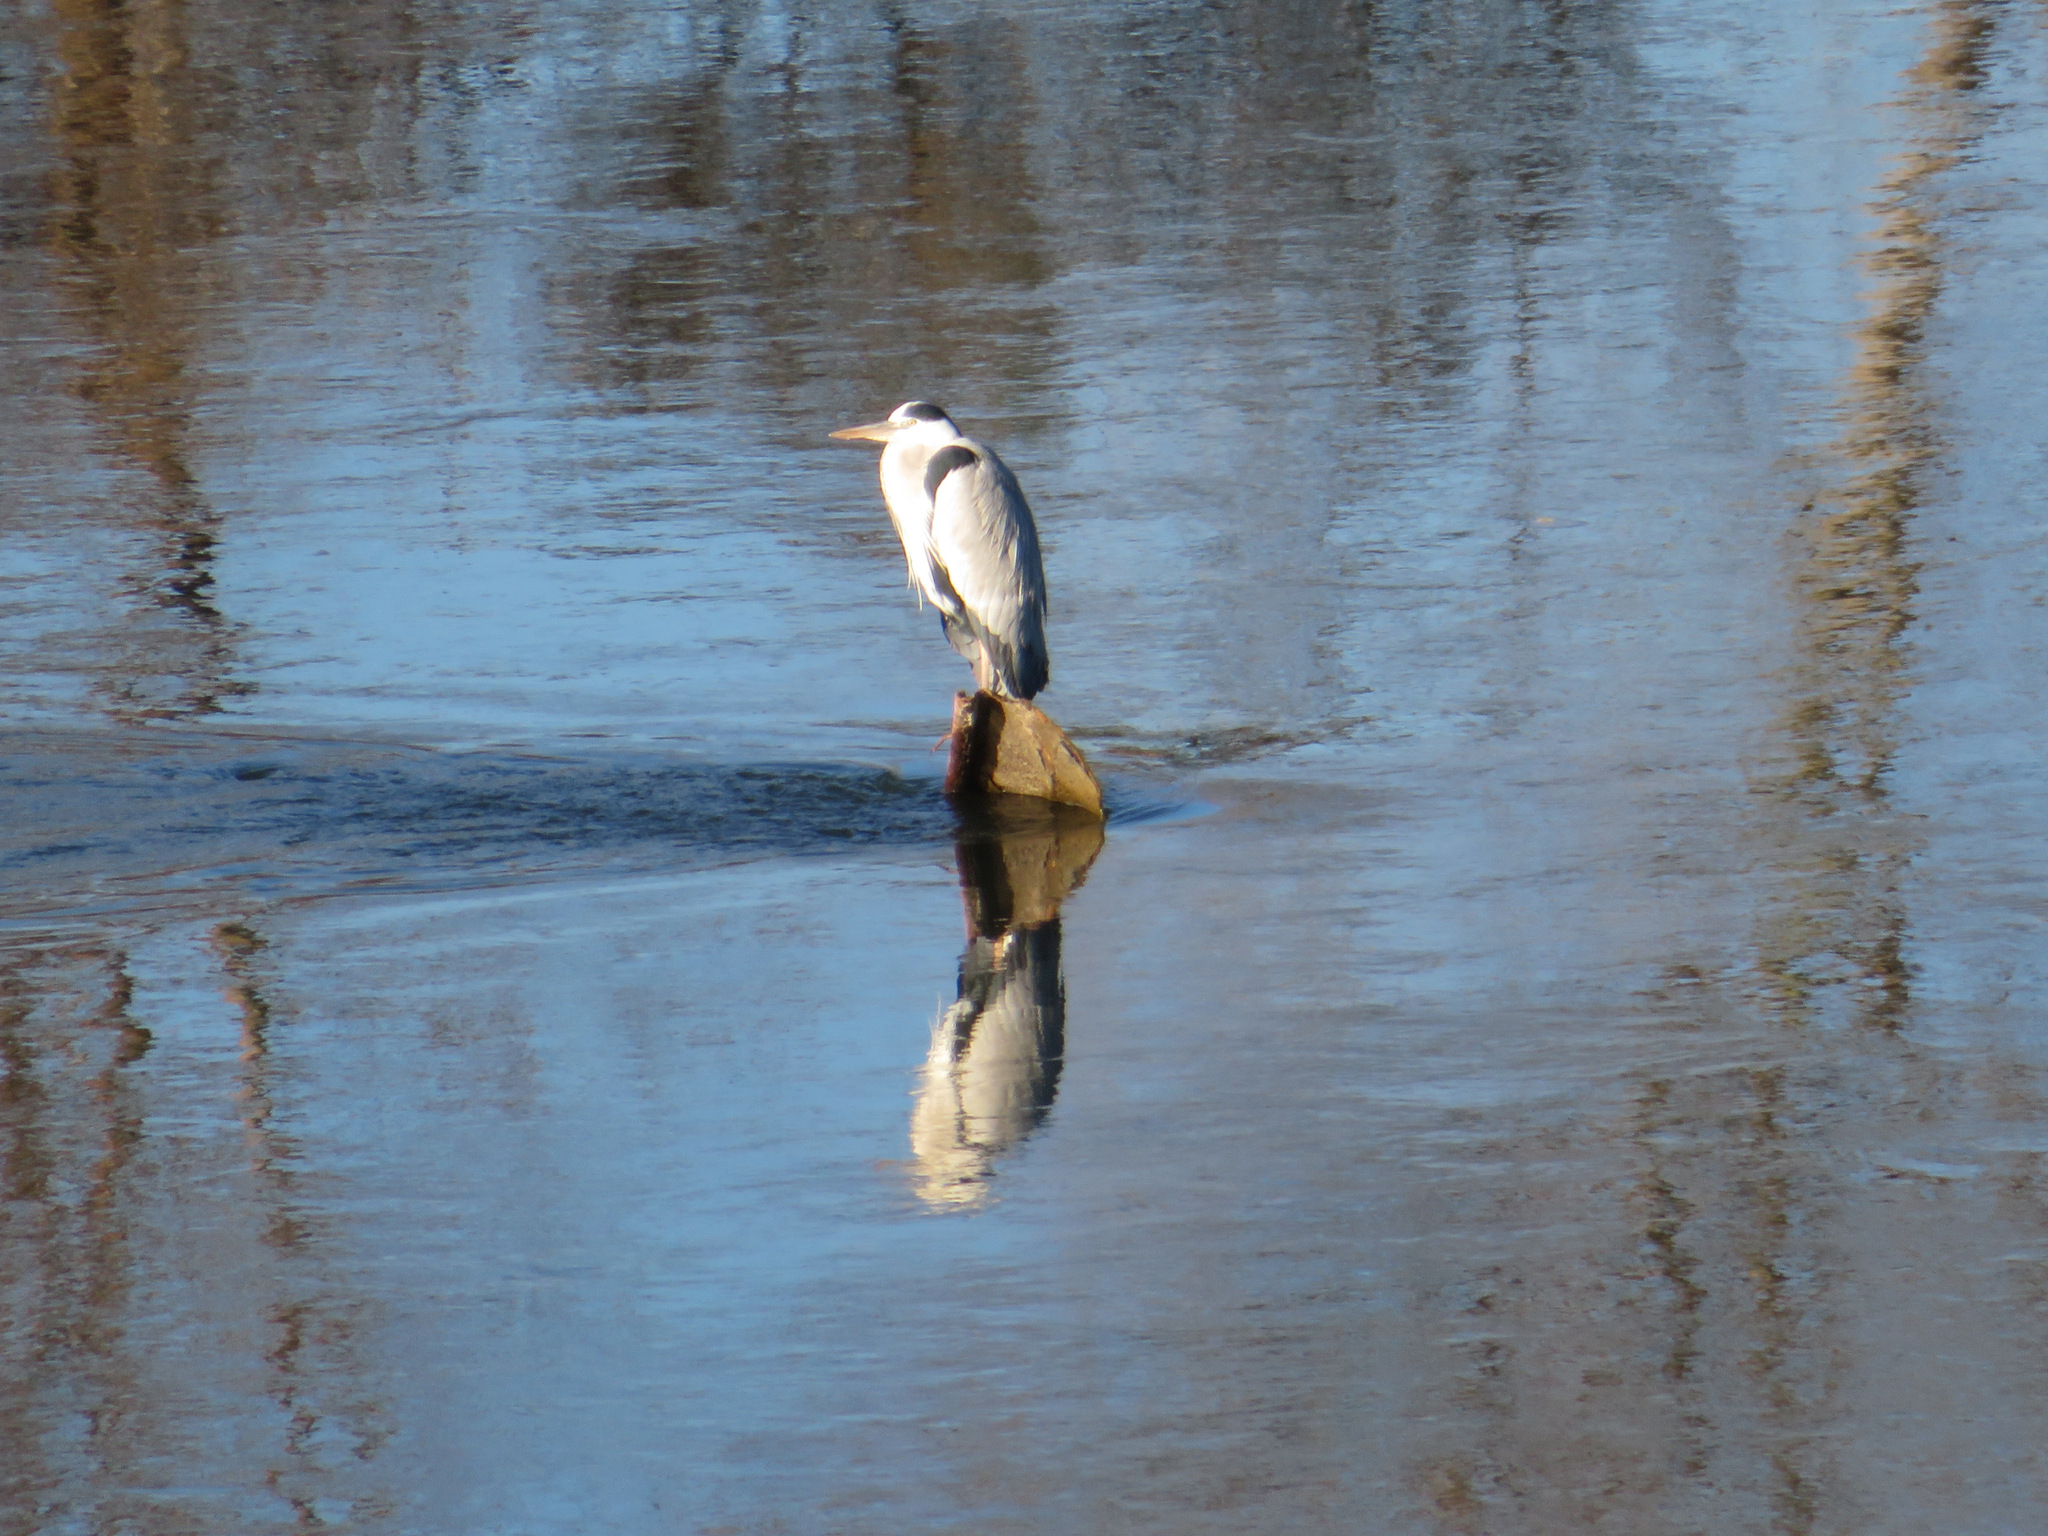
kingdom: Animalia
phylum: Chordata
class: Aves
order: Pelecaniformes
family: Ardeidae
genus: Ardea
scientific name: Ardea cinerea
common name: Grey heron
